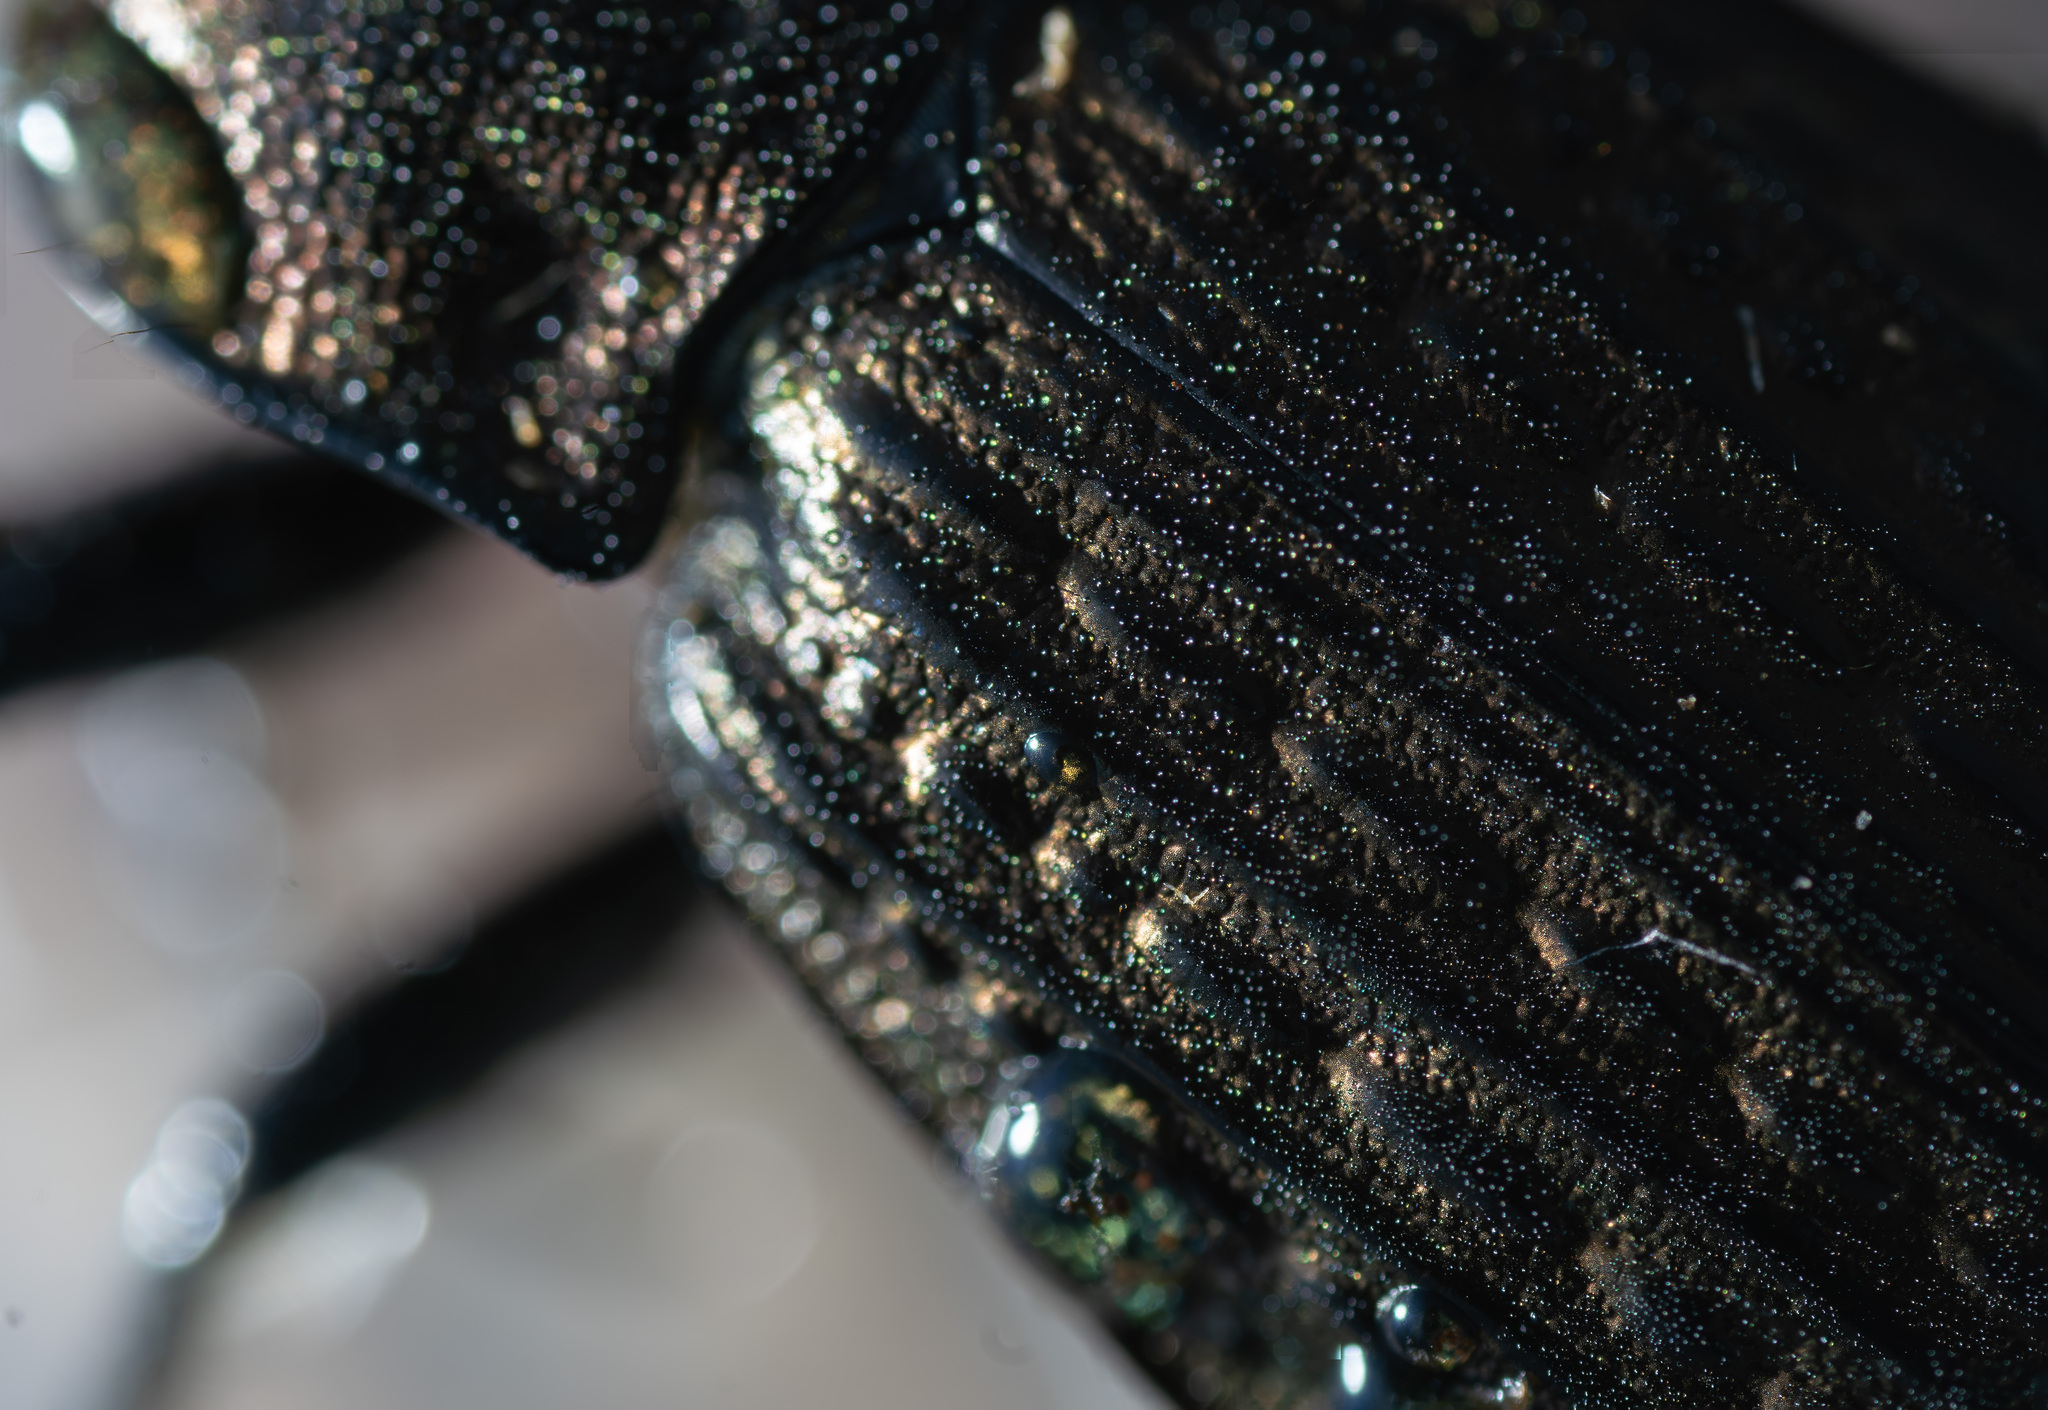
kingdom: Animalia
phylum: Arthropoda
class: Insecta
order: Coleoptera
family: Carabidae
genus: Carabus
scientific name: Carabus granulatus
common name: Granulate ground beetle
